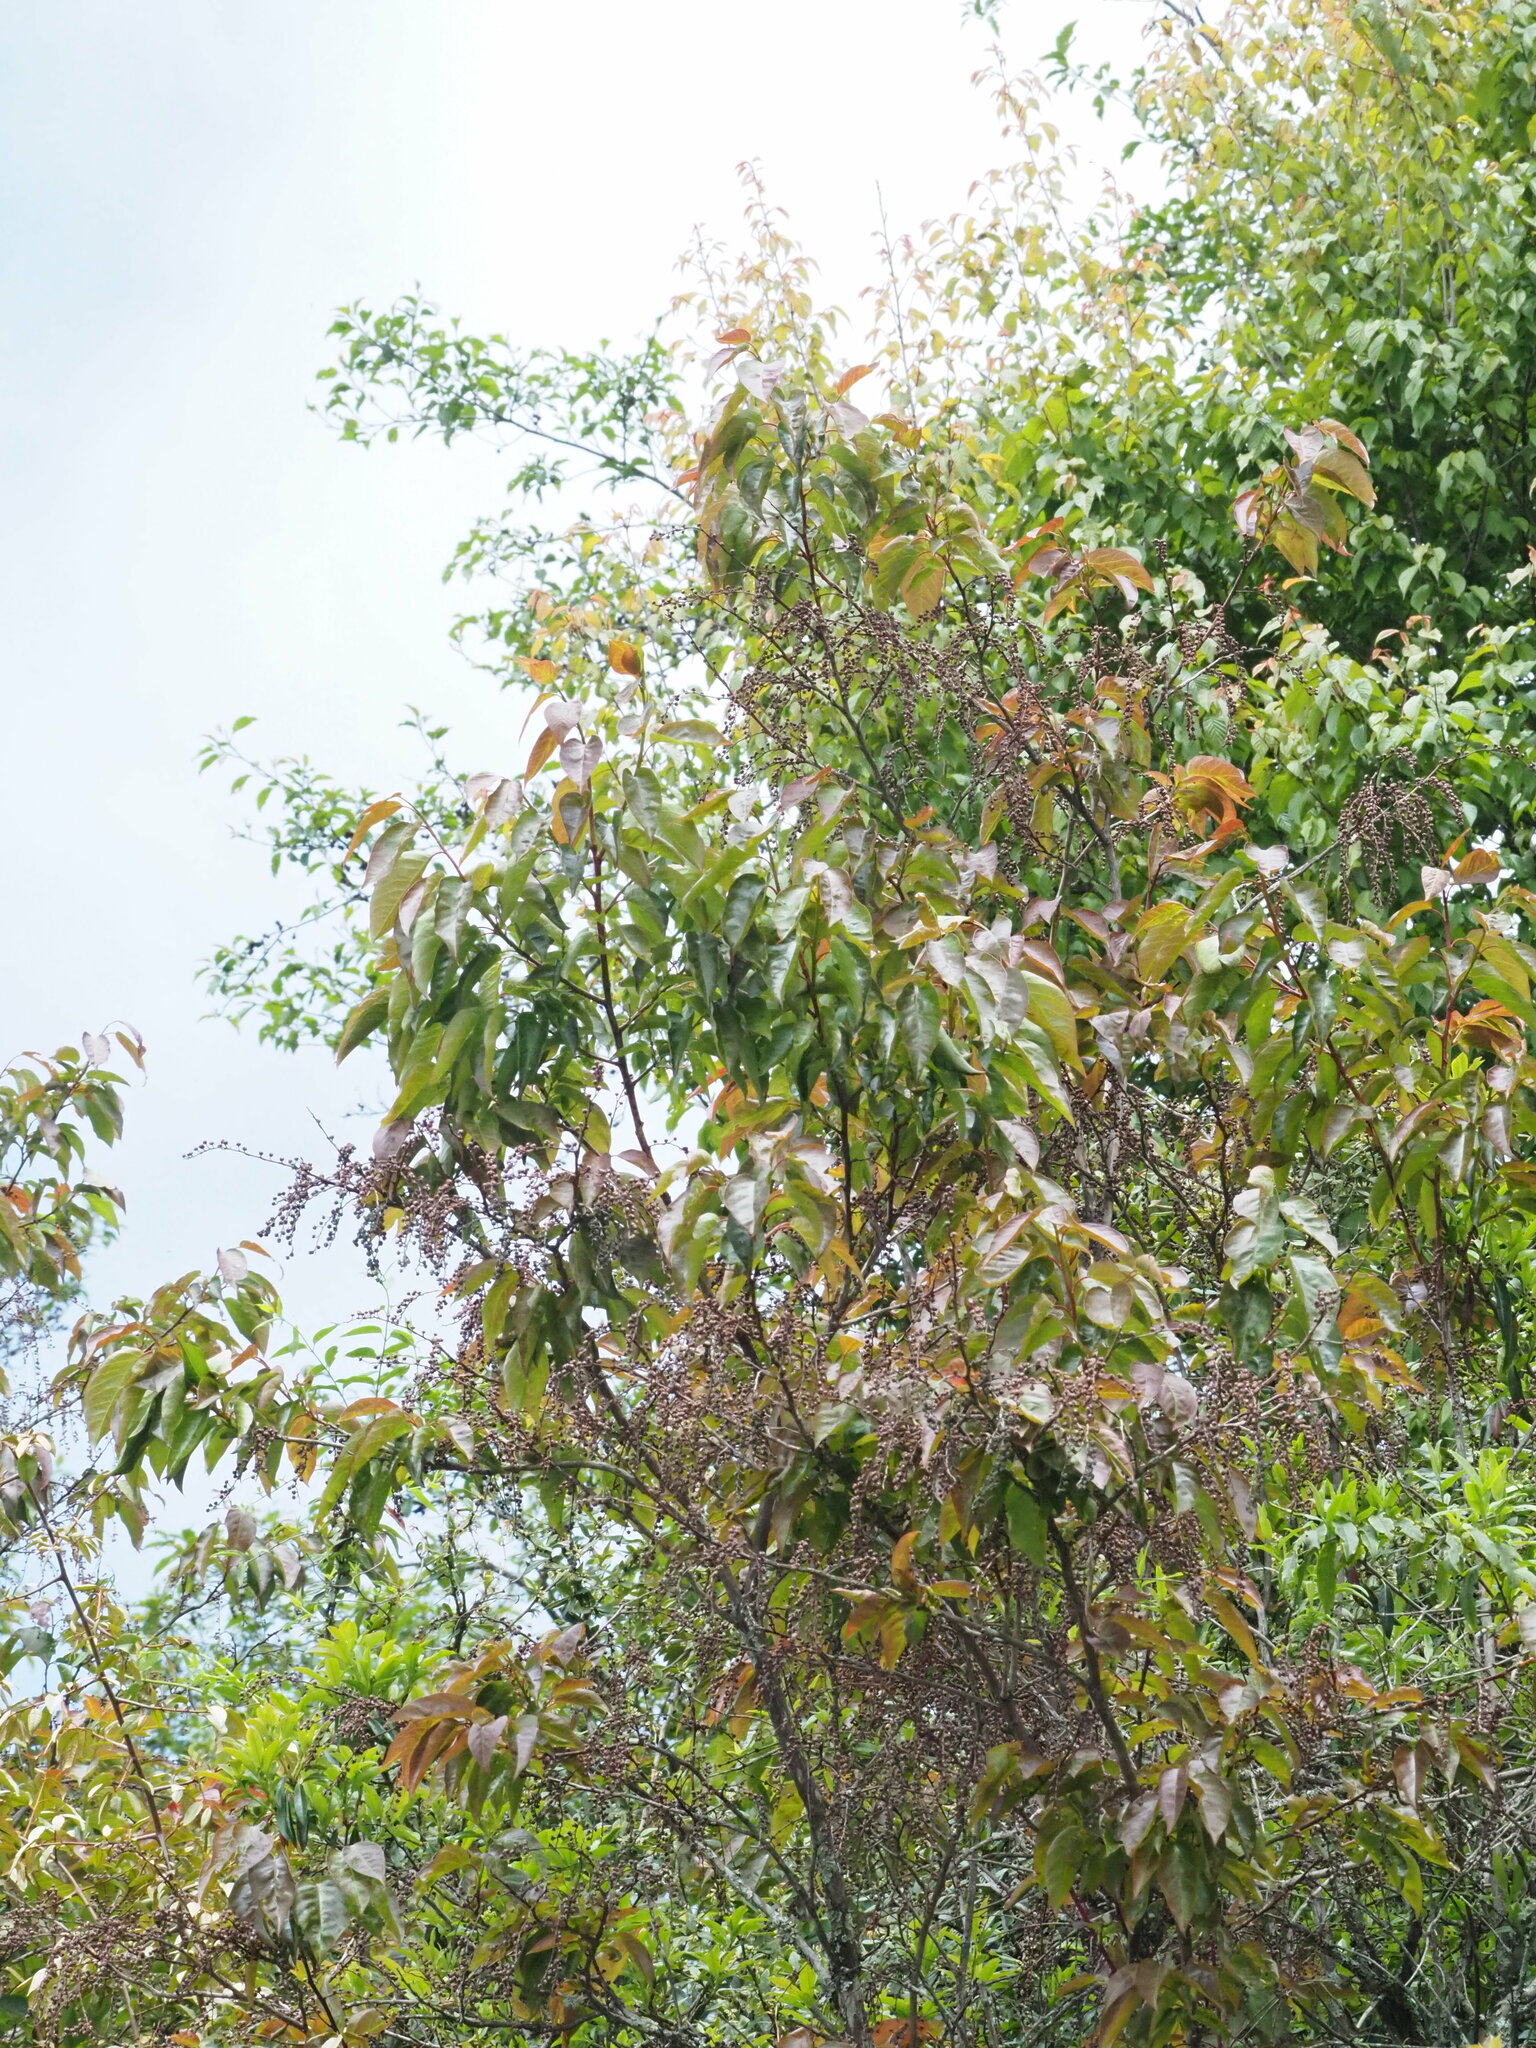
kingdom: Plantae
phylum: Tracheophyta
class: Magnoliopsida
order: Ericales
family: Ericaceae
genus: Lyonia
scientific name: Lyonia ovalifolia
